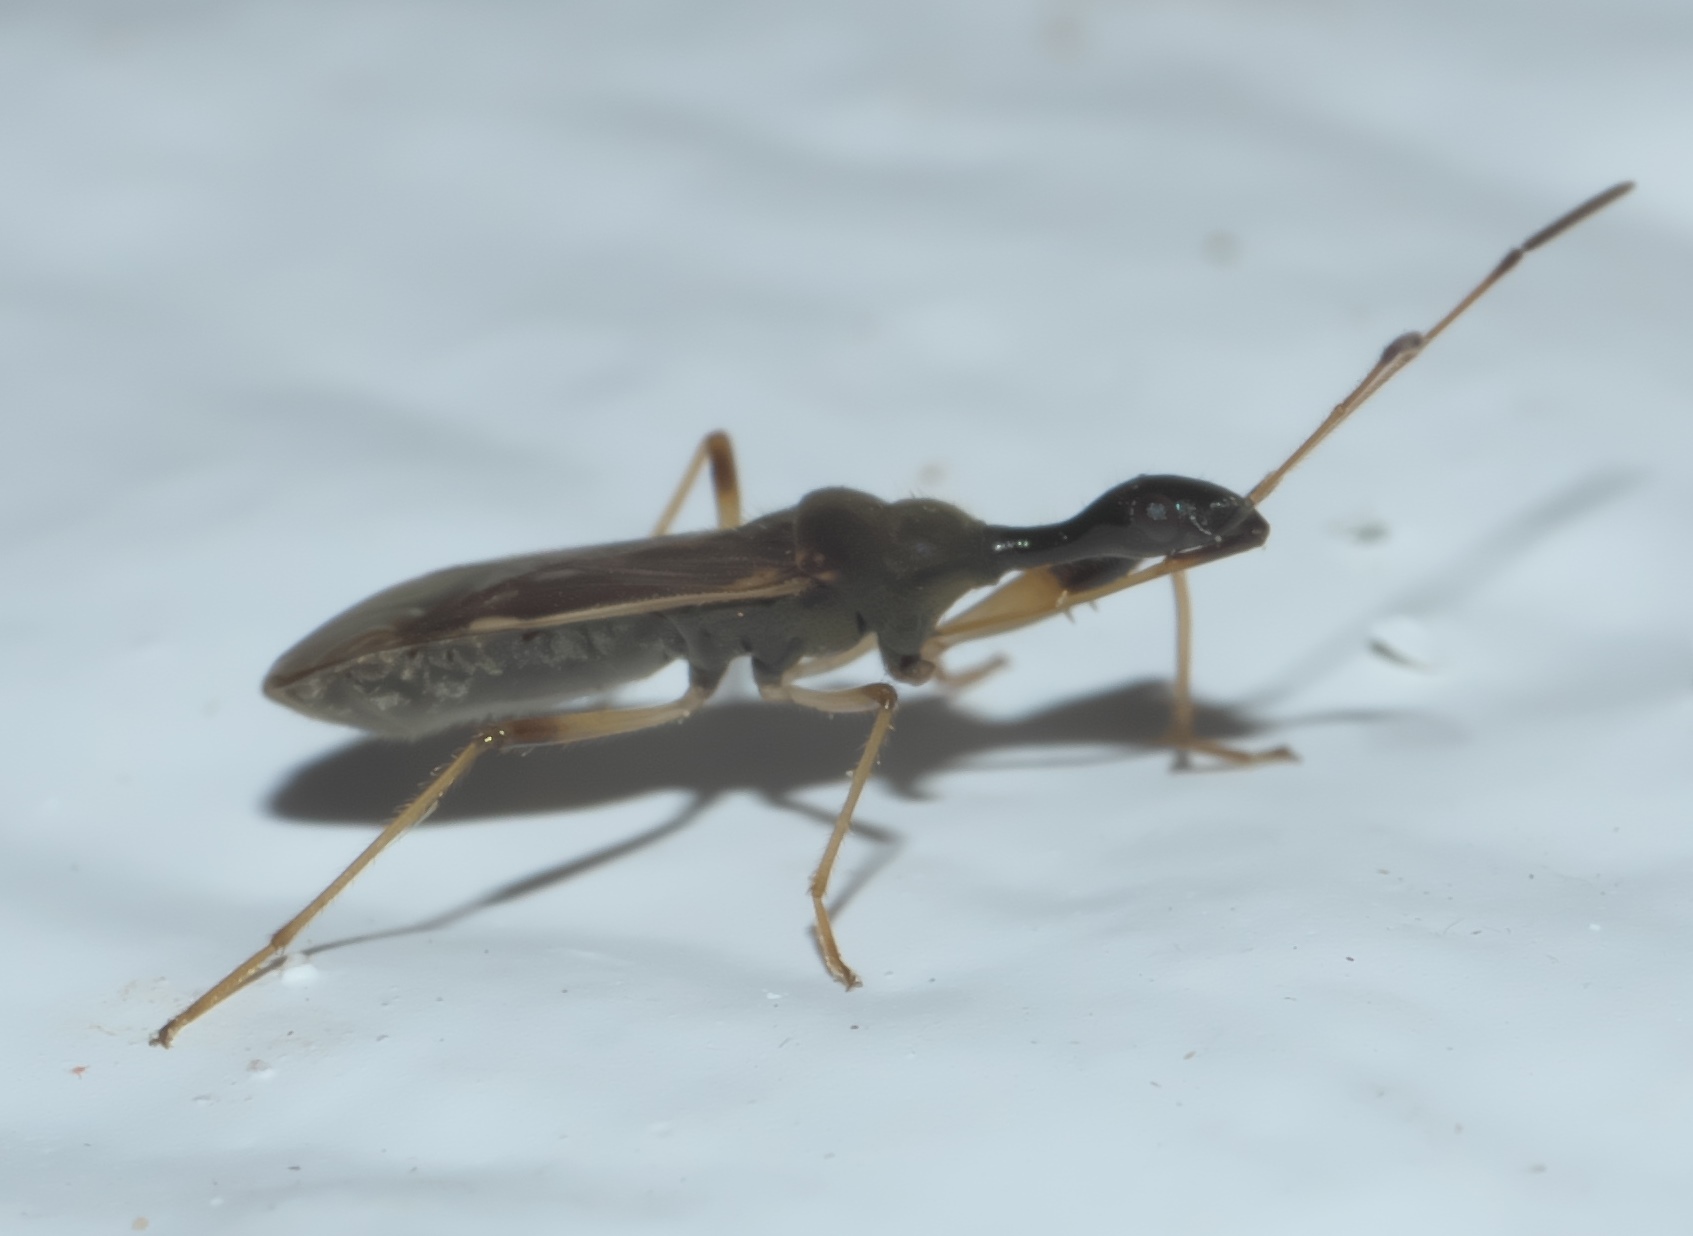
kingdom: Animalia
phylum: Arthropoda
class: Insecta
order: Hemiptera
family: Rhyparochromidae
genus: Myodocha
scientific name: Myodocha serripes
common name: Long-necked seed bug
